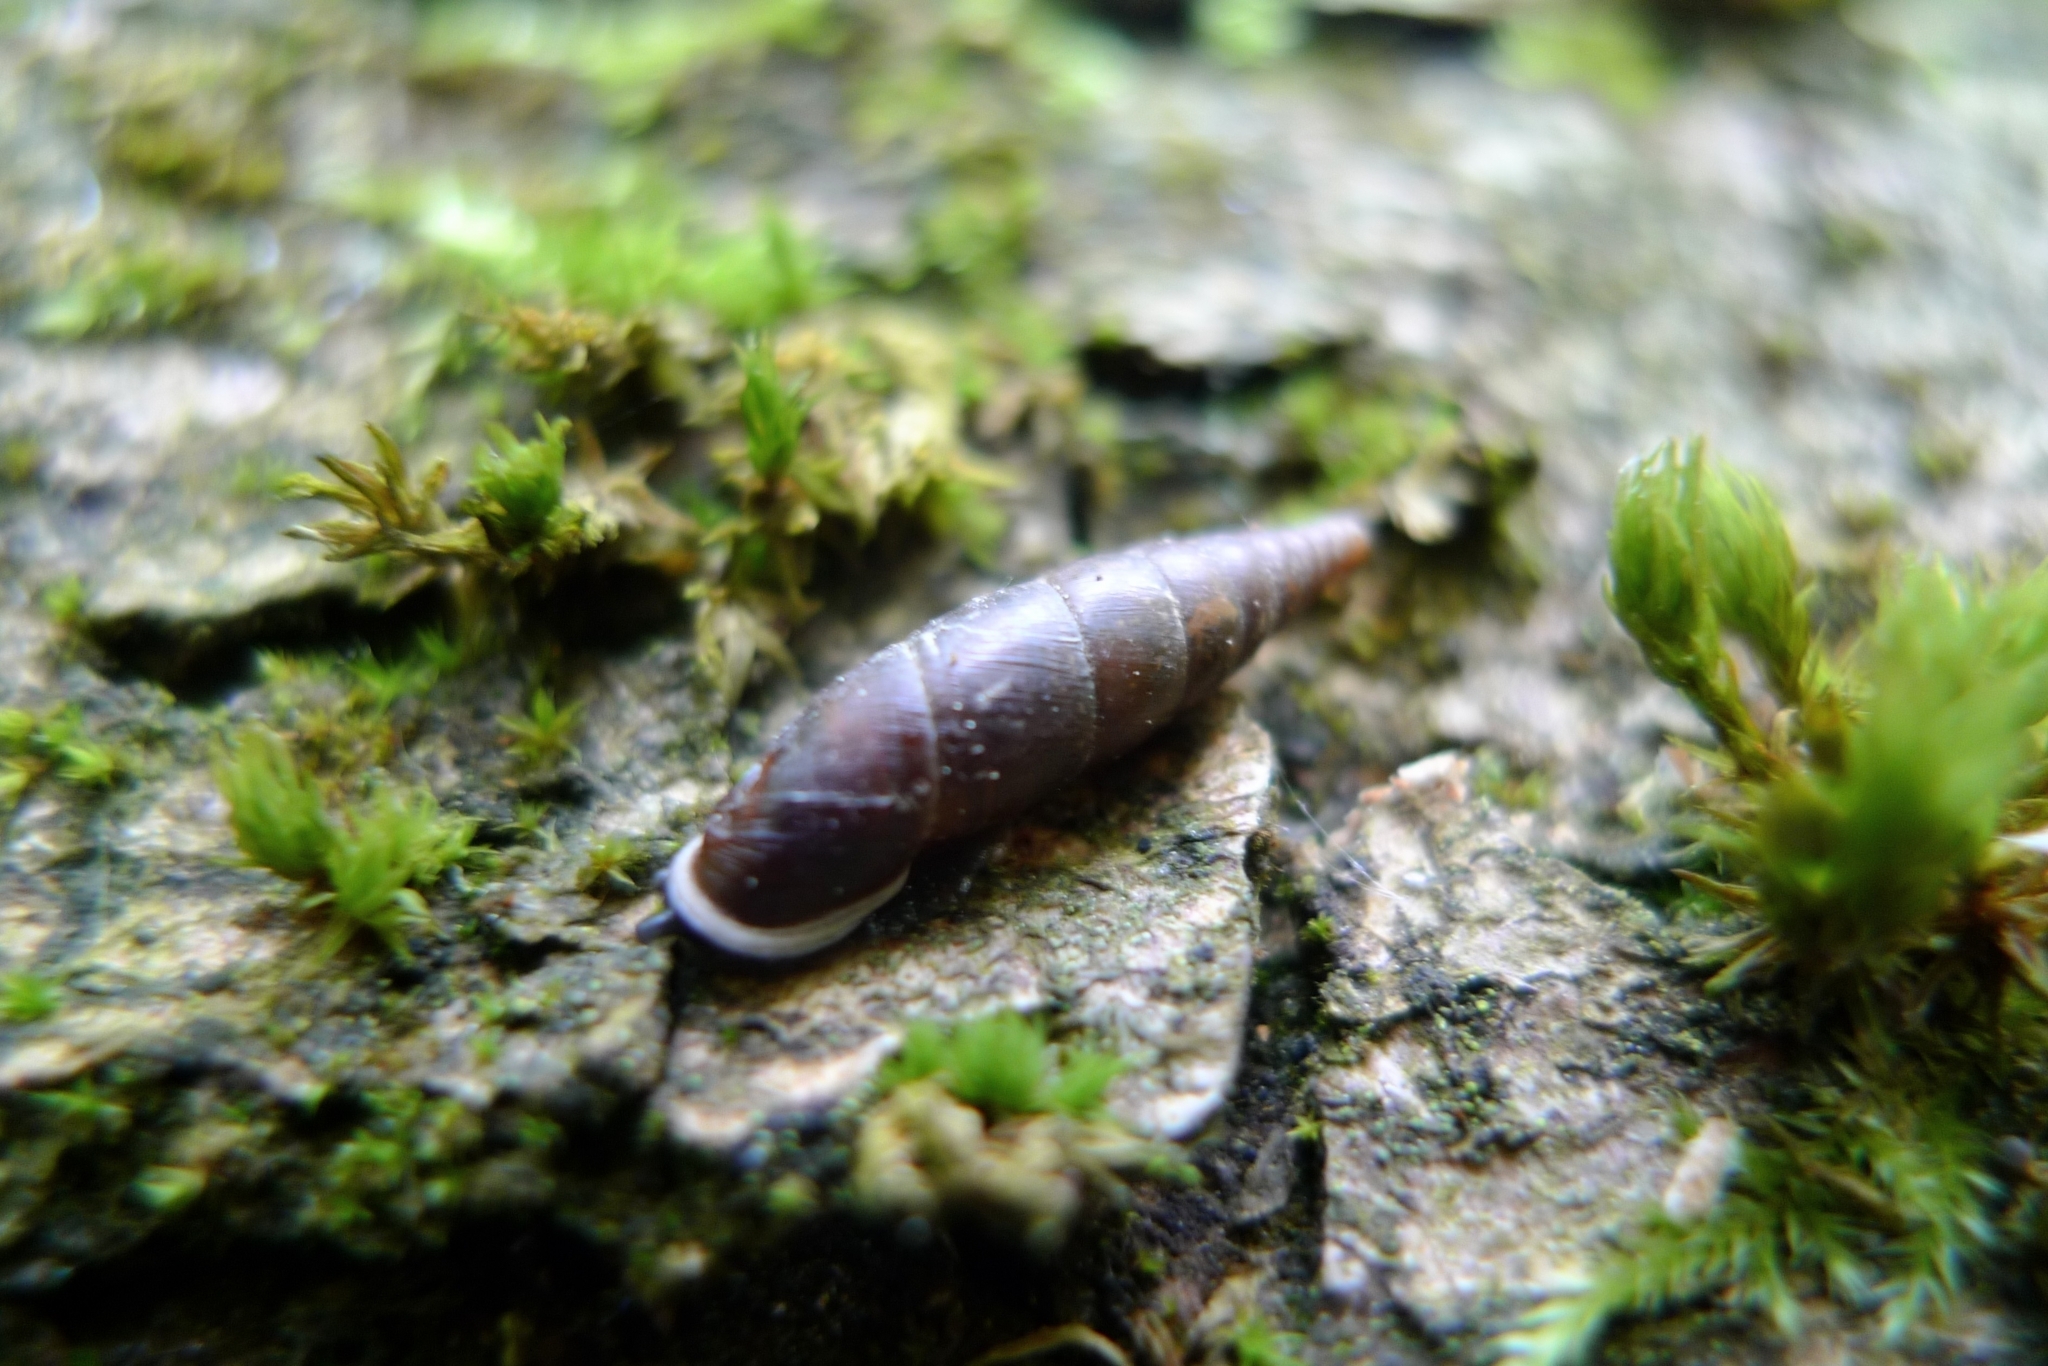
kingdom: Animalia
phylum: Mollusca
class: Gastropoda
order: Stylommatophora
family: Clausiliidae
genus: Cochlodina
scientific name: Cochlodina laminata
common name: Plaited door snail
